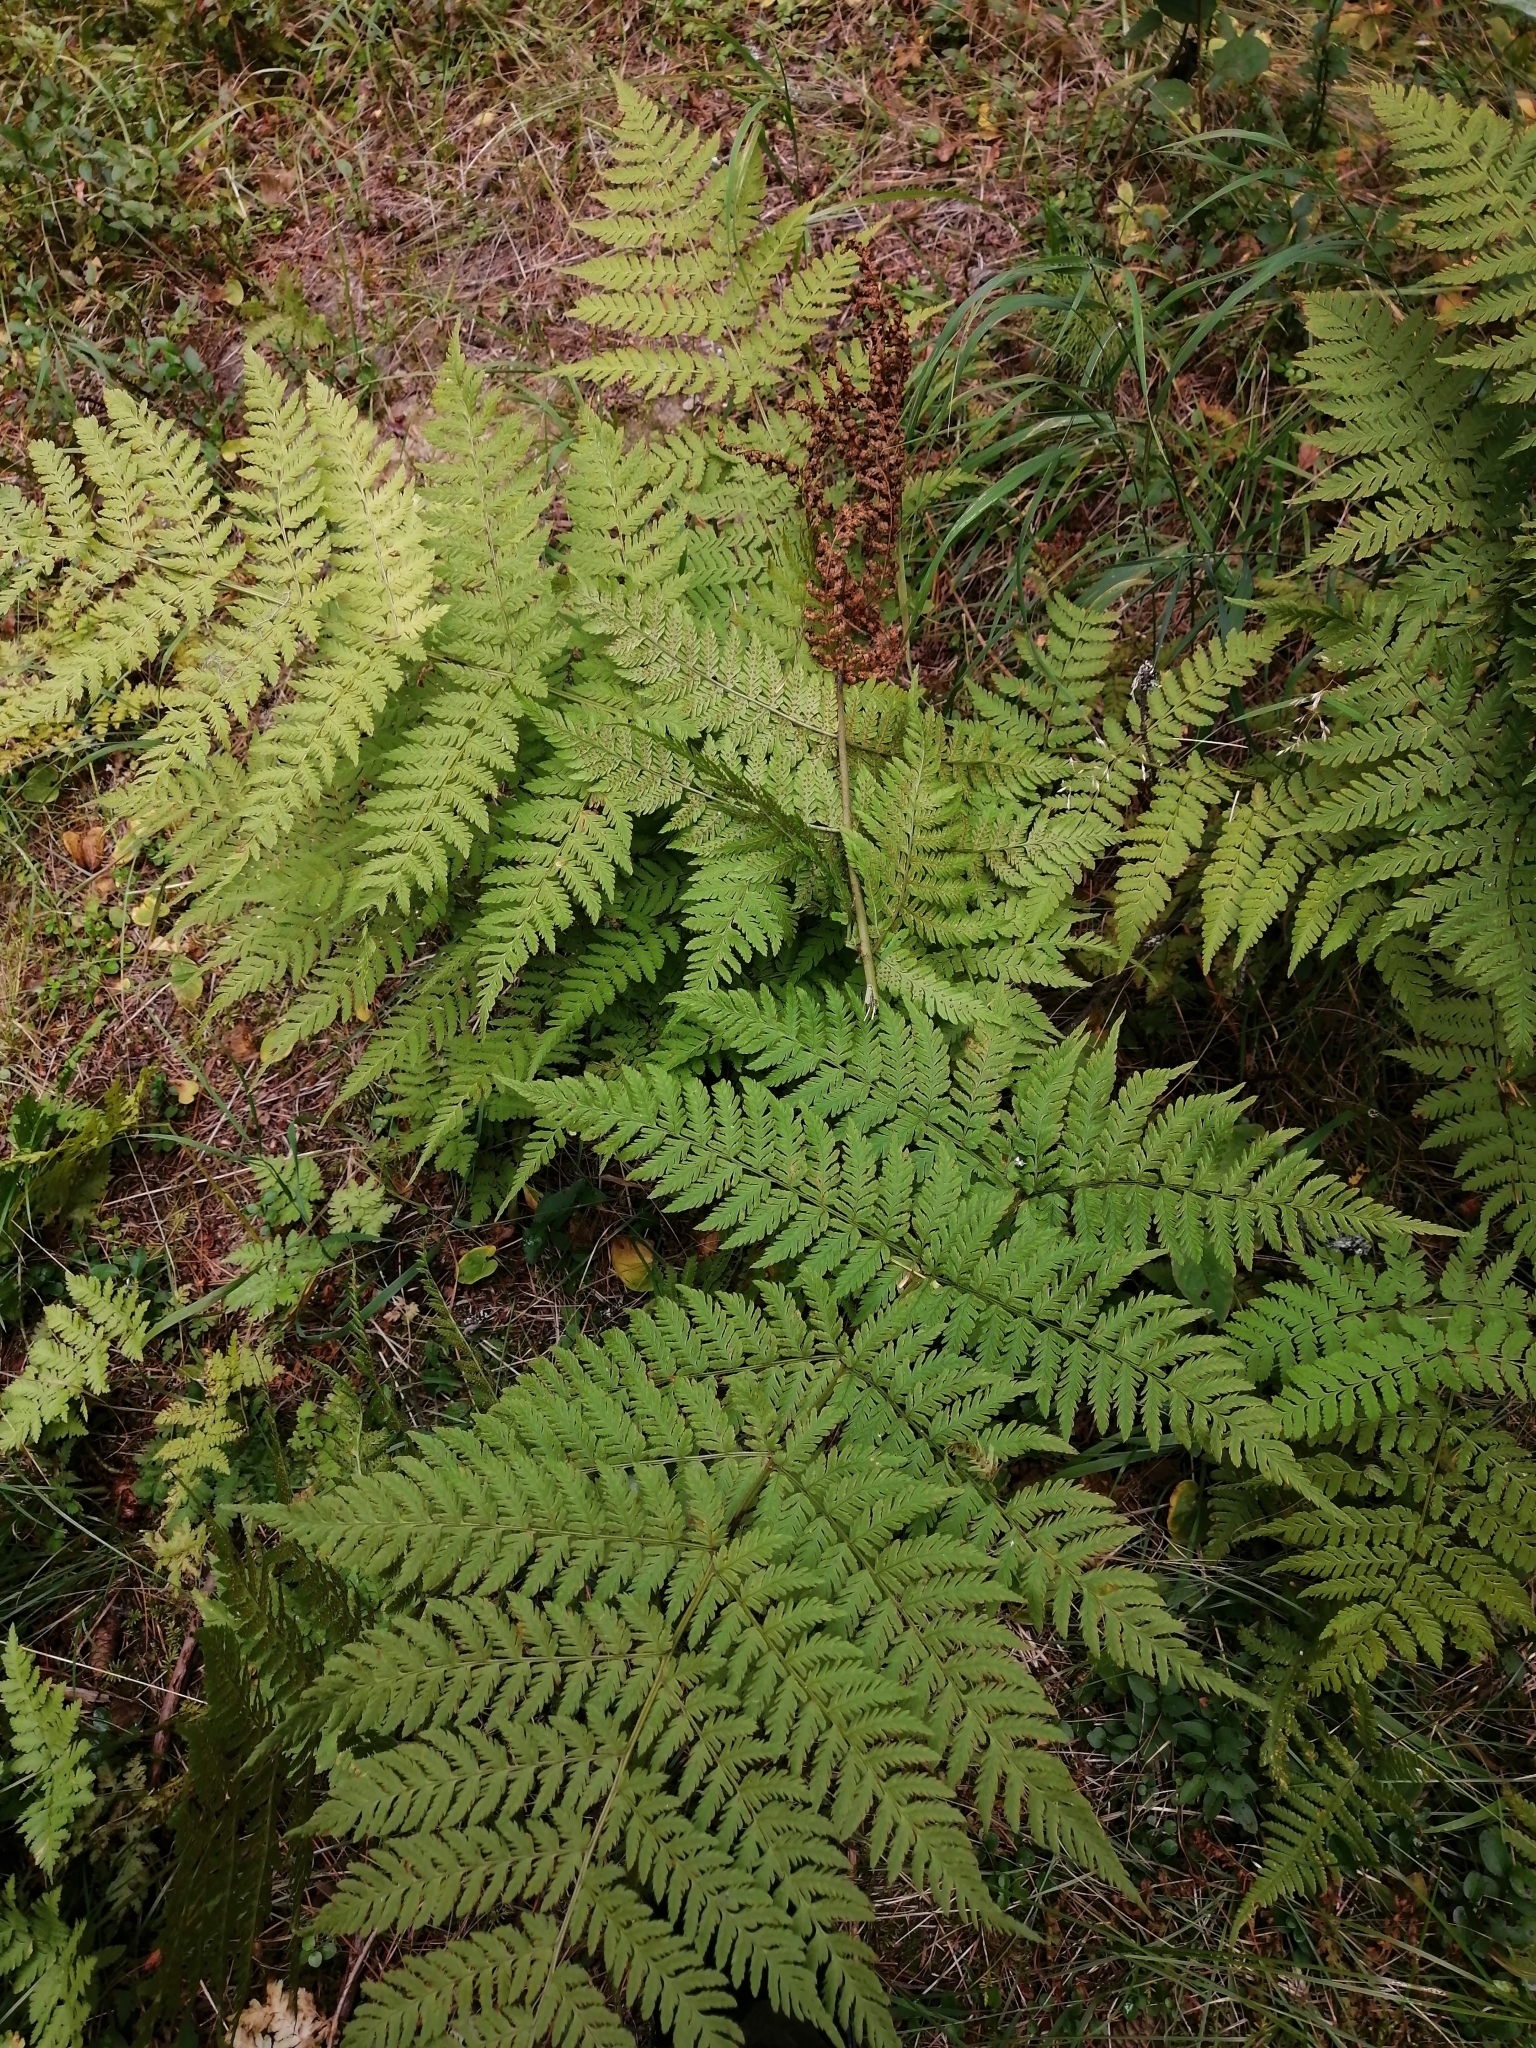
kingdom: Plantae
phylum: Tracheophyta
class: Polypodiopsida
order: Polypodiales
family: Dryopteridaceae
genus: Dryopteris
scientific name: Dryopteris expansa
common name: Northern buckler fern
